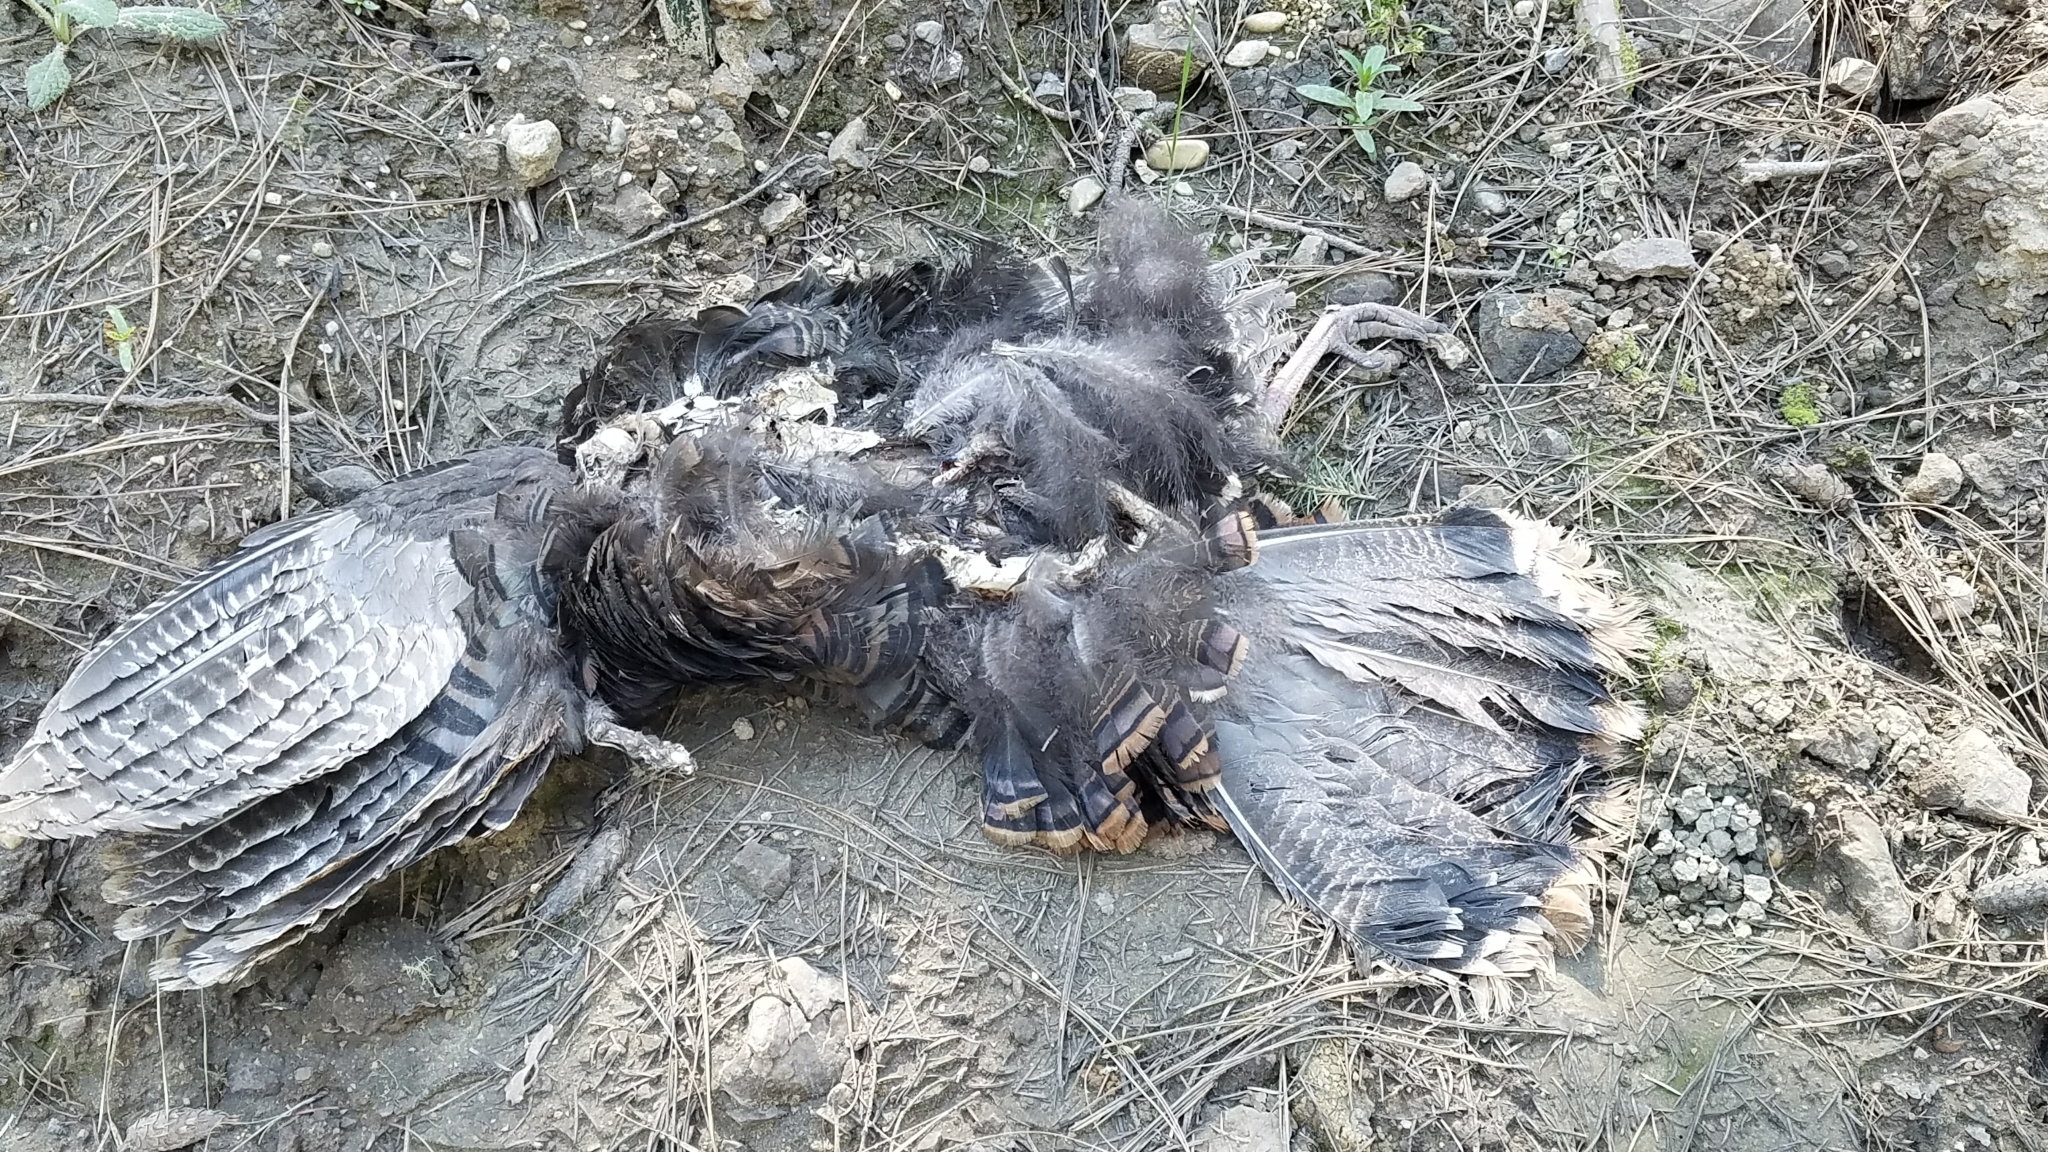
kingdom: Animalia
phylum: Chordata
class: Aves
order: Galliformes
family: Phasianidae
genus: Meleagris
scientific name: Meleagris gallopavo
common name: Wild turkey
